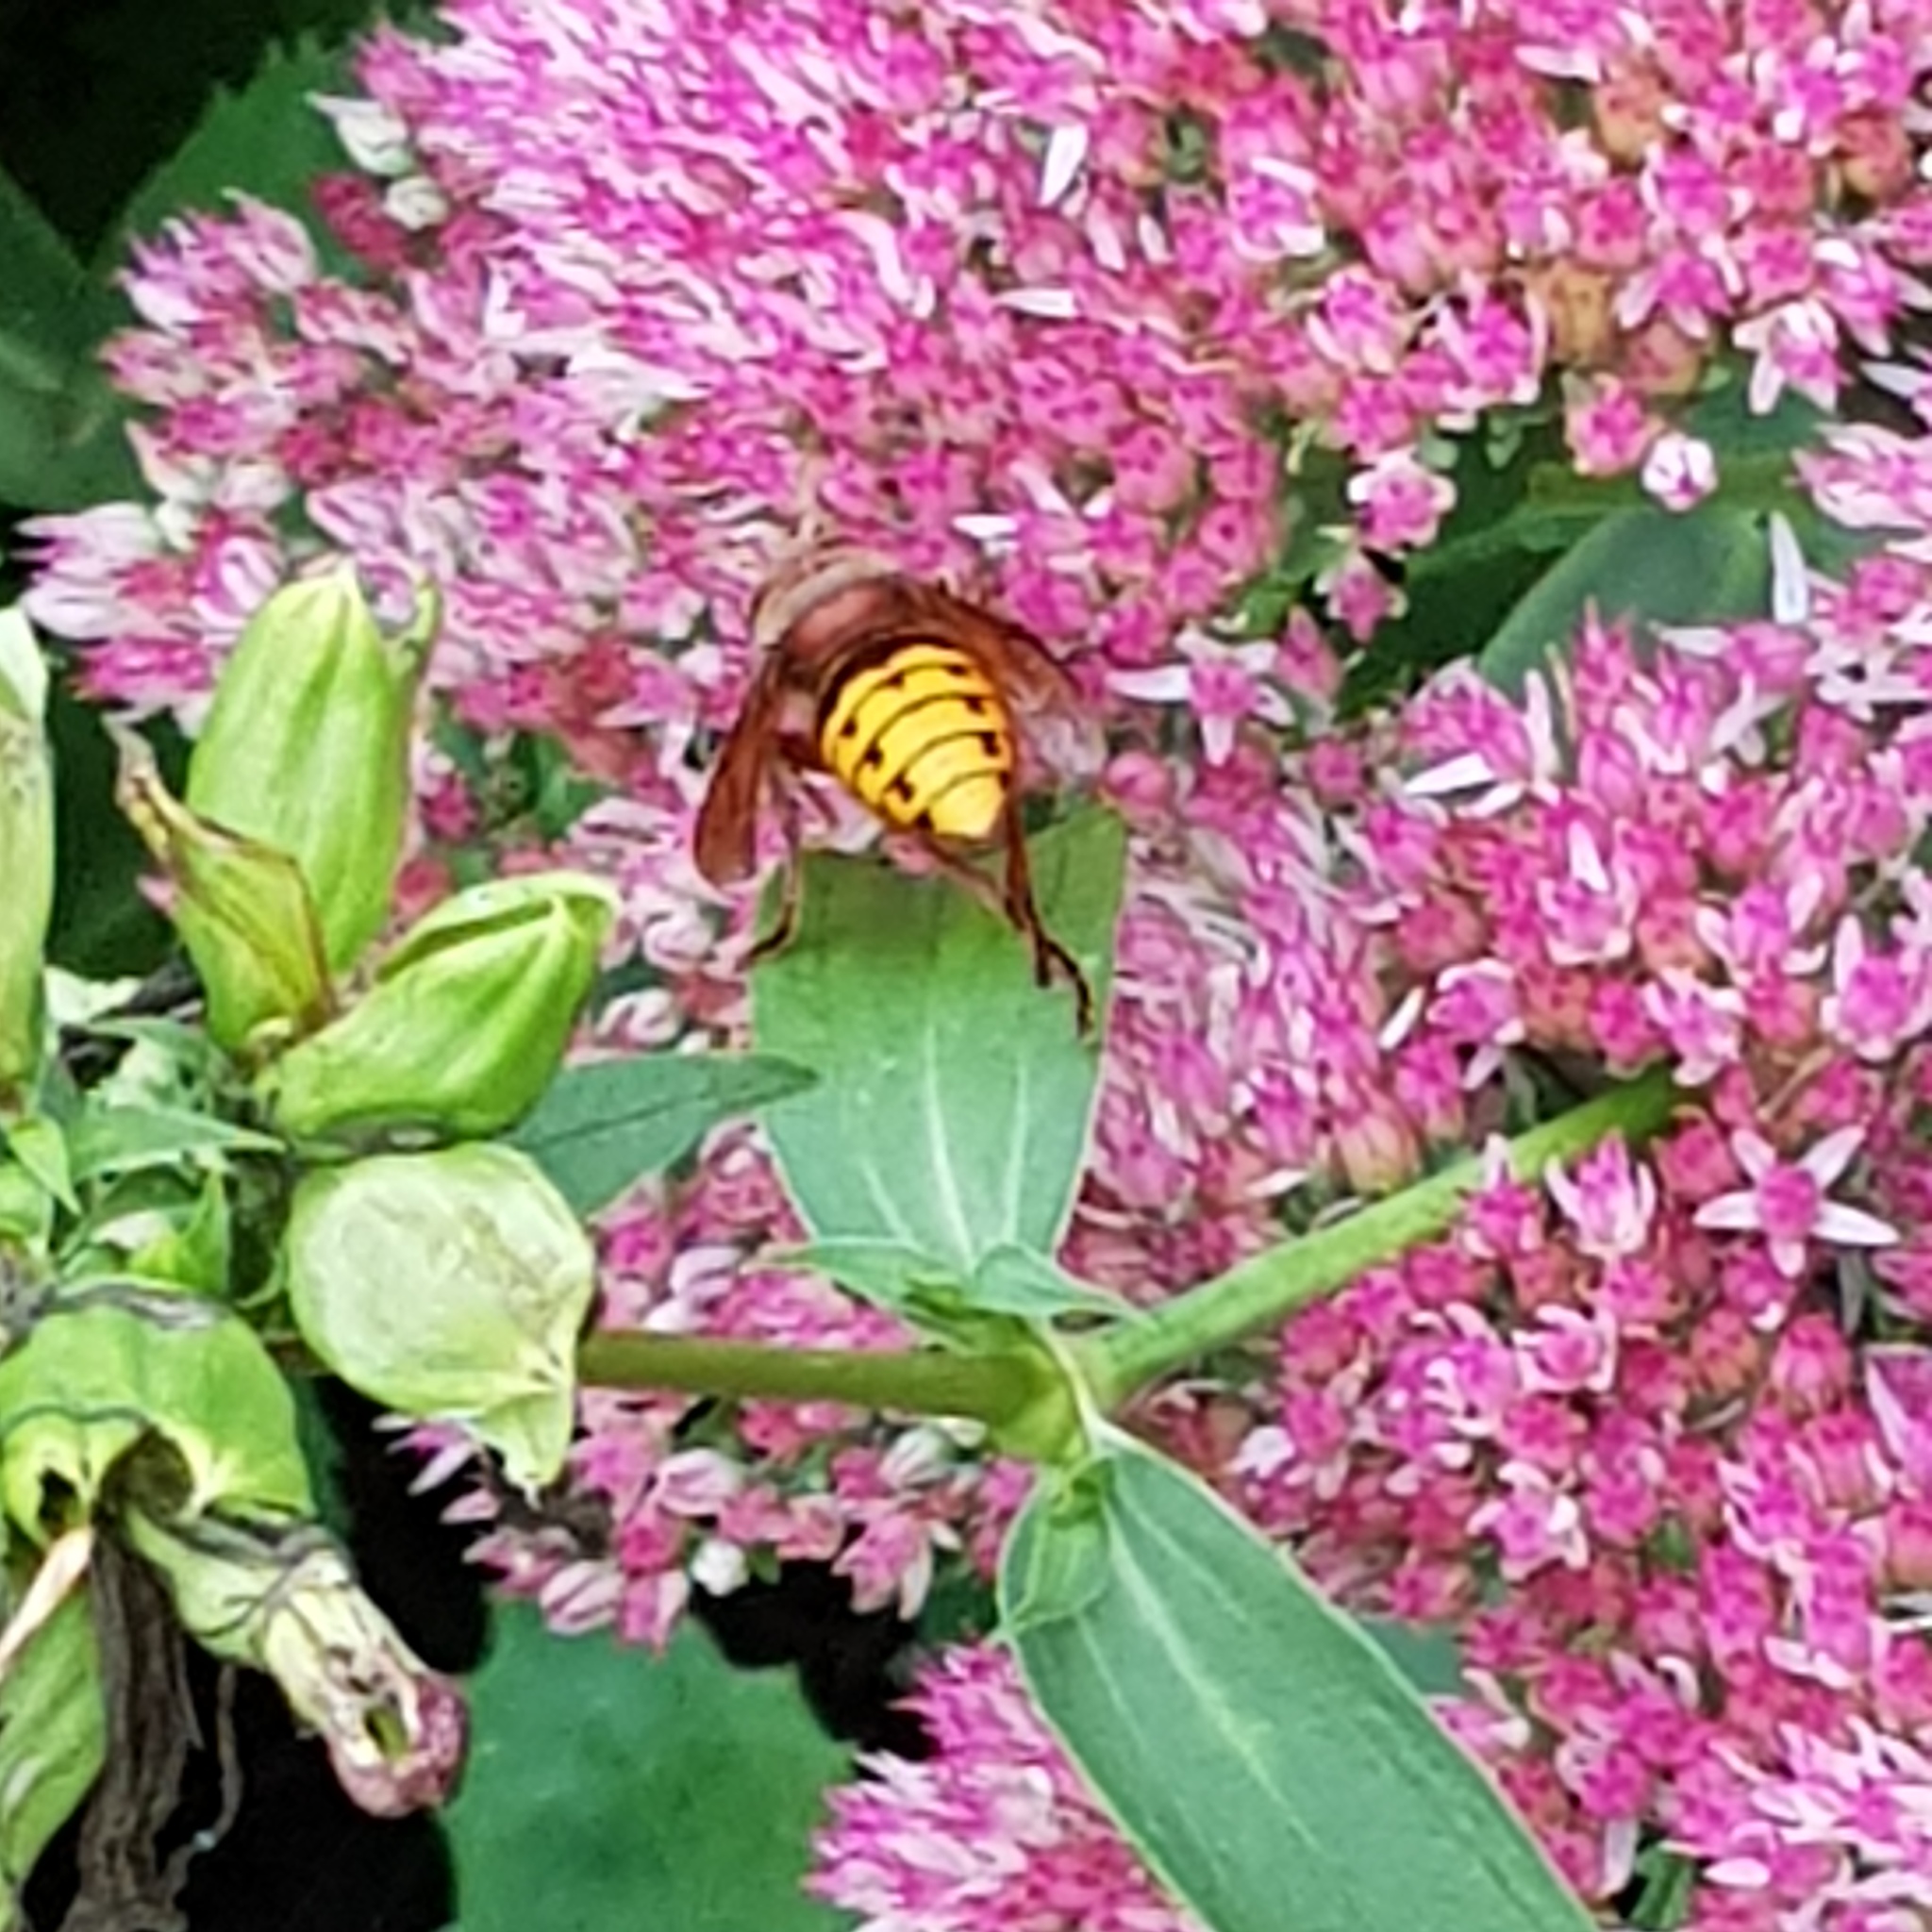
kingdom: Animalia
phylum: Arthropoda
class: Insecta
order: Hymenoptera
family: Vespidae
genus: Vespa
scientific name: Vespa crabro
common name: Hornet
